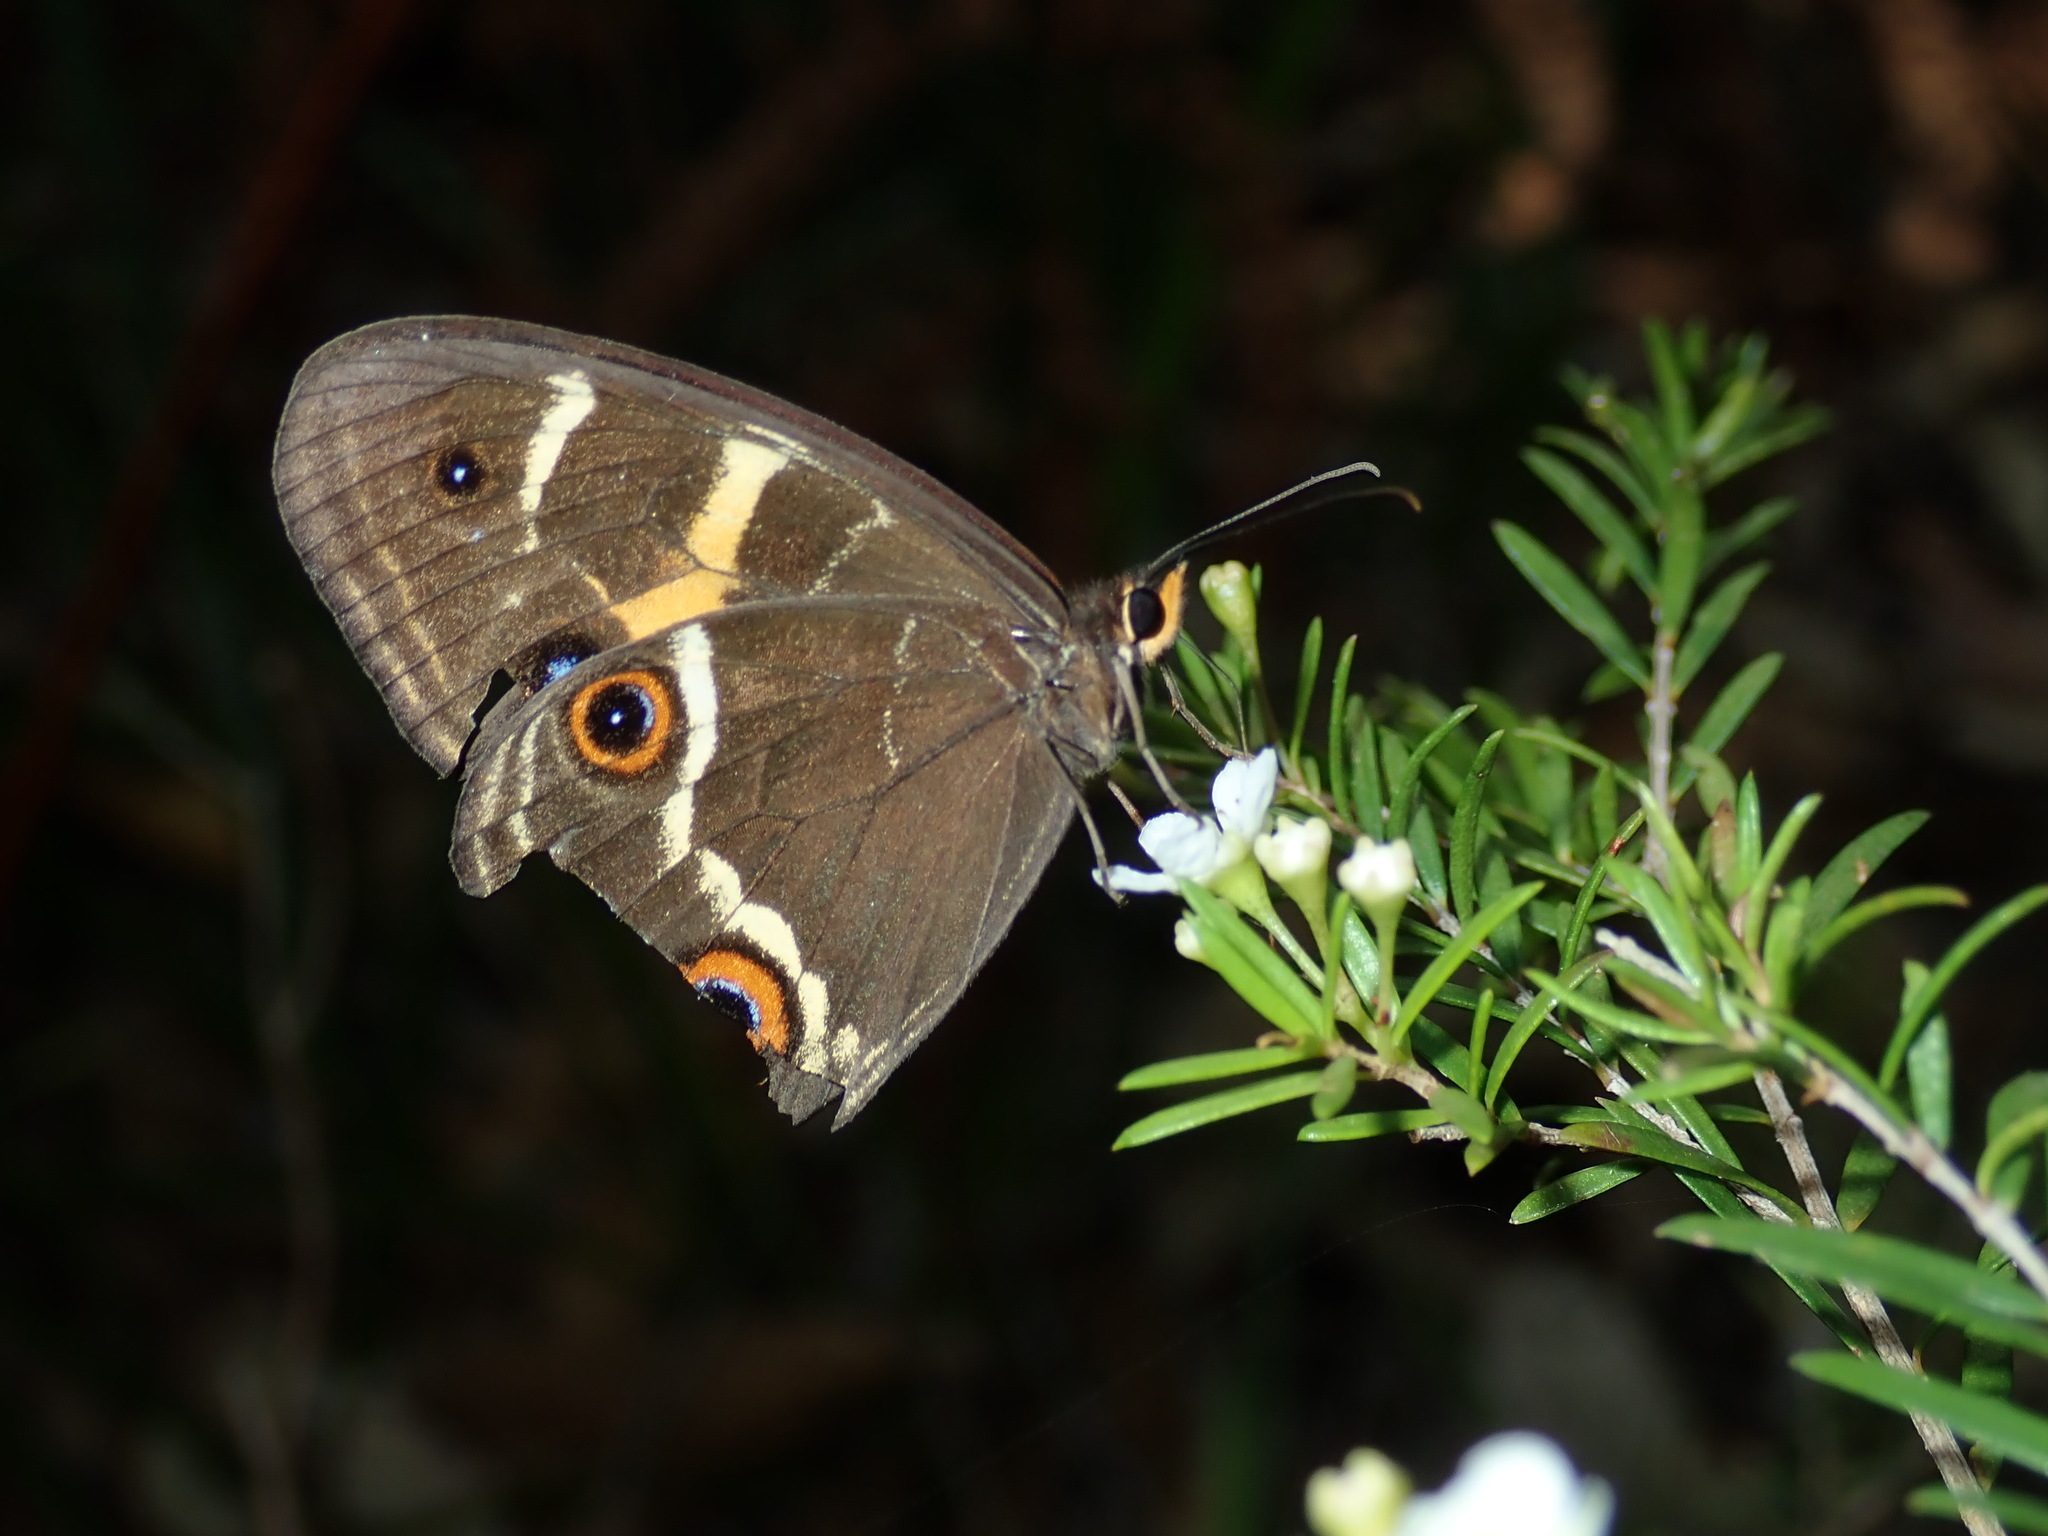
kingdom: Animalia
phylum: Arthropoda
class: Insecta
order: Lepidoptera
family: Nymphalidae
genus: Tisiphone
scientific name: Tisiphone abeona
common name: Swordgrass brown
